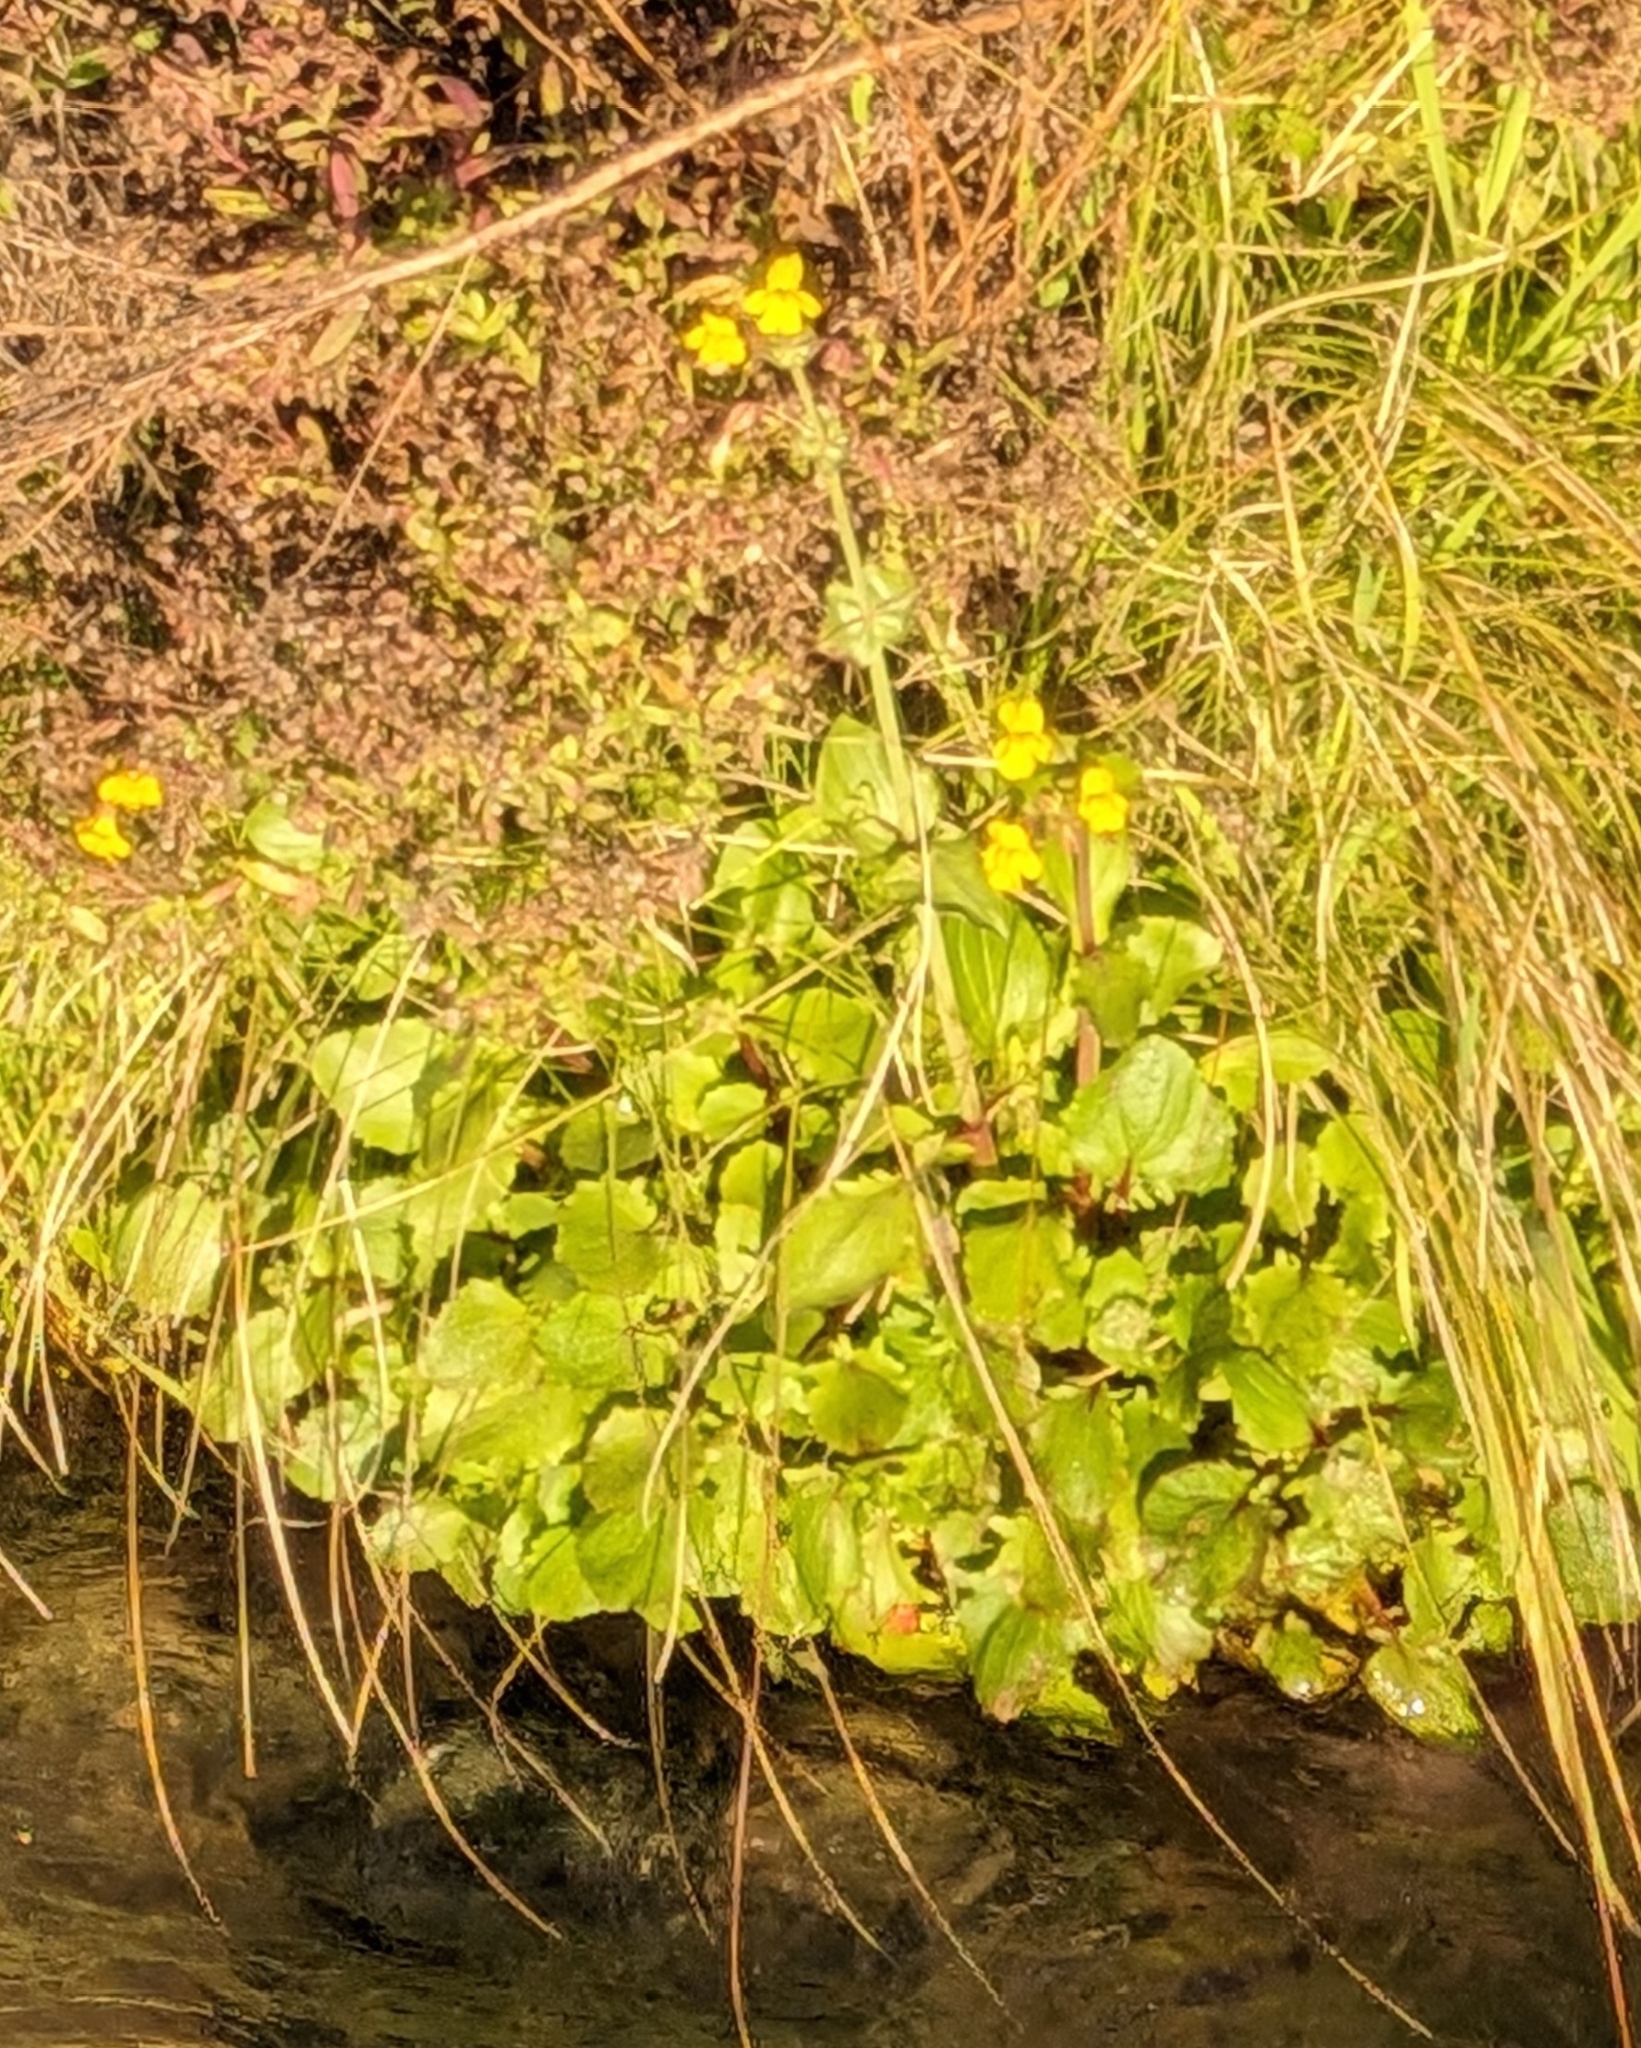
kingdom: Plantae
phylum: Tracheophyta
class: Magnoliopsida
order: Lamiales
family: Phrymaceae
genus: Erythranthe
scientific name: Erythranthe guttata
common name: Monkeyflower
